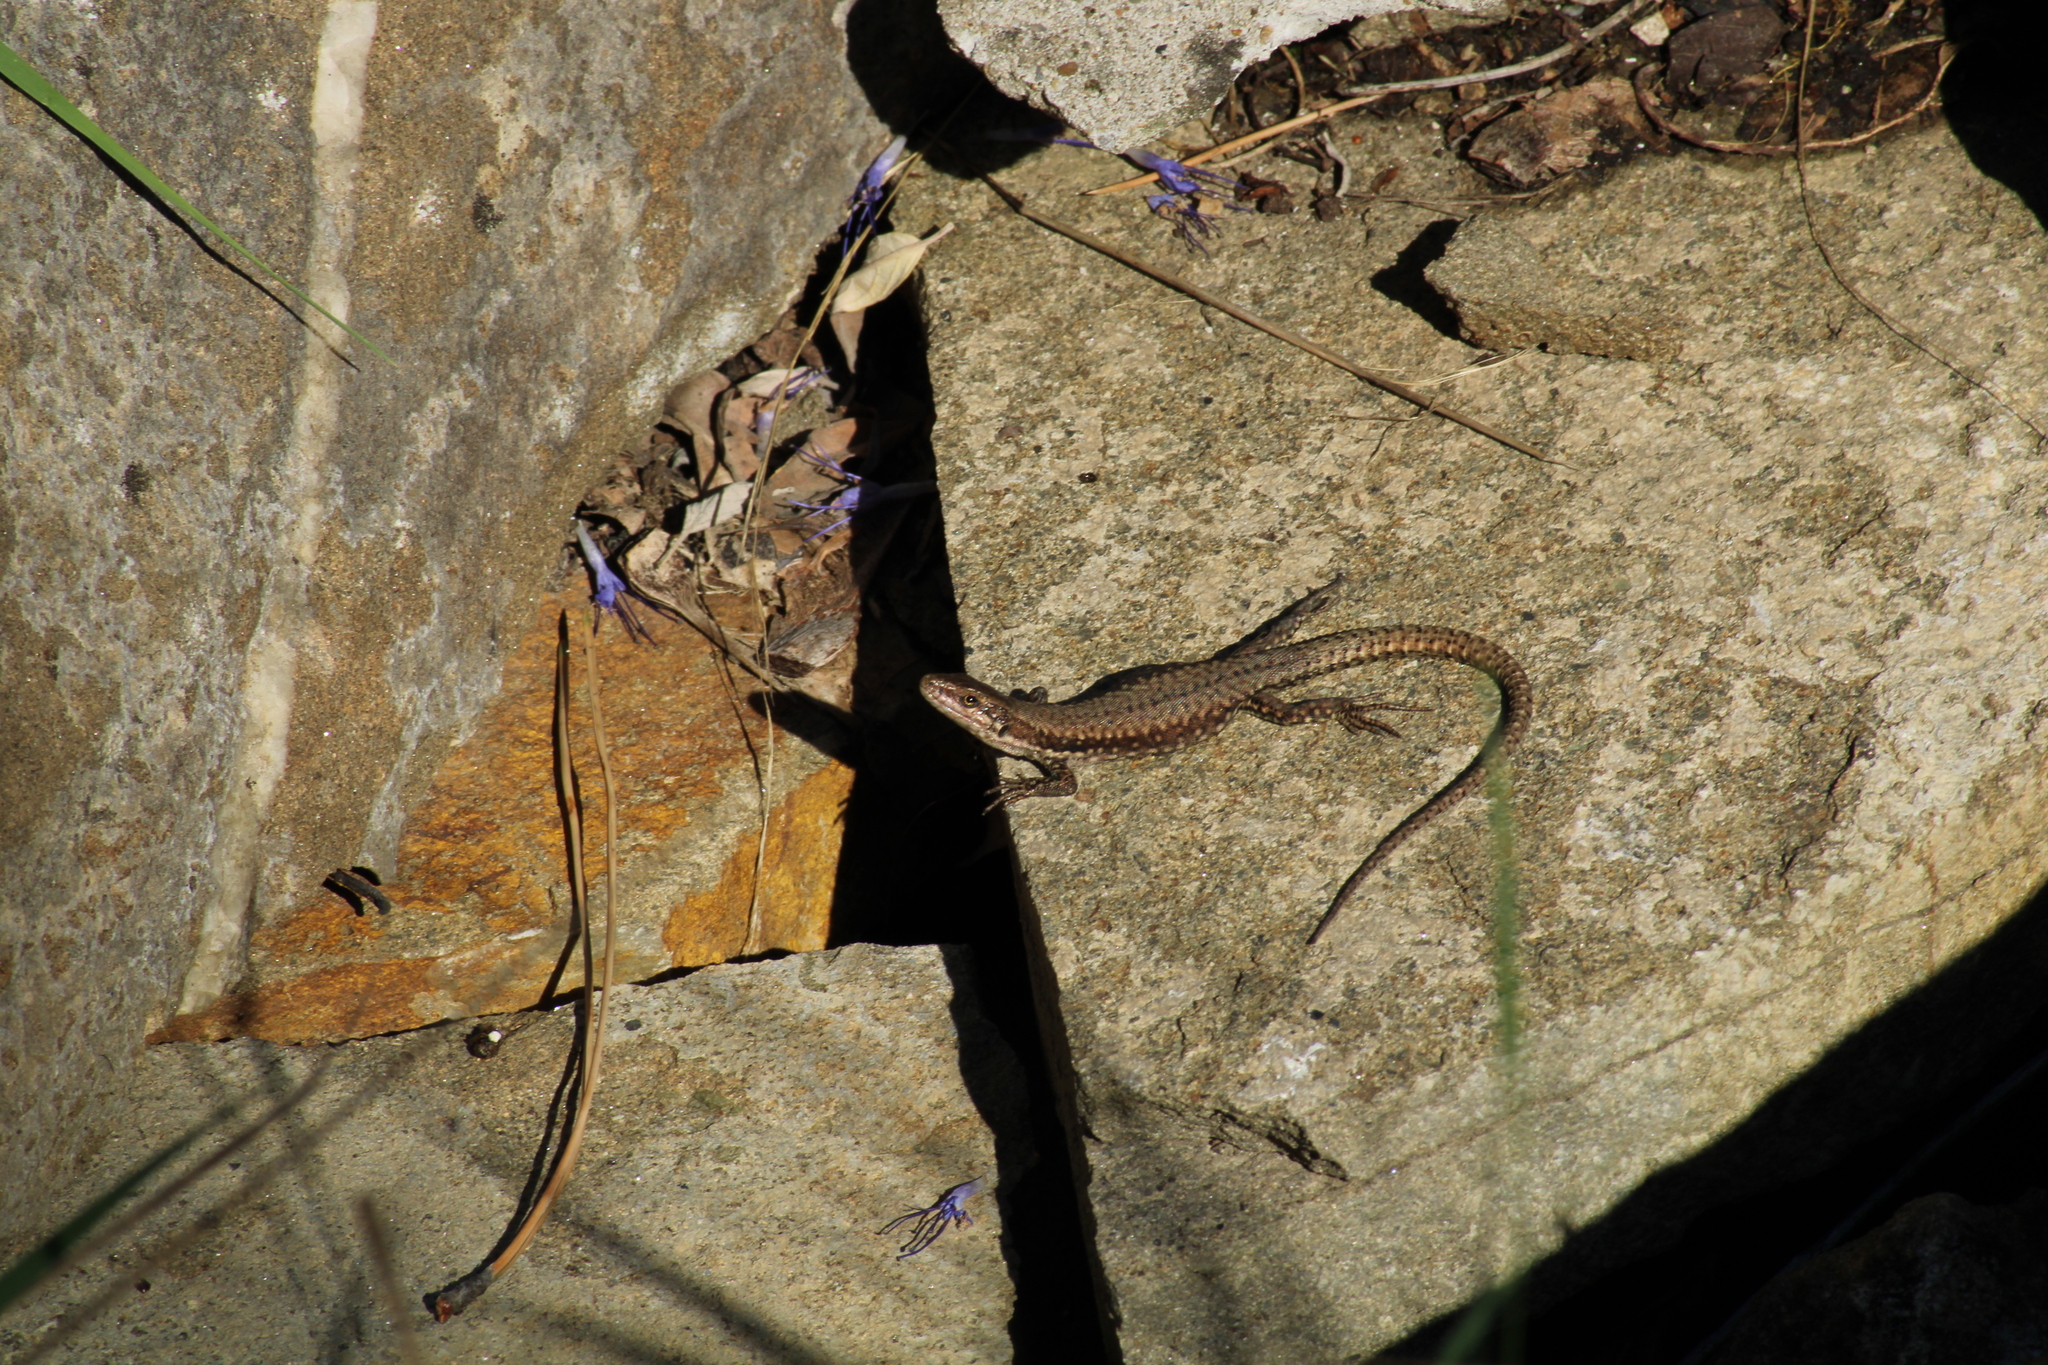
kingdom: Animalia
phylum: Chordata
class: Squamata
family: Lacertidae
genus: Podarcis
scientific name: Podarcis muralis
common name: Common wall lizard
